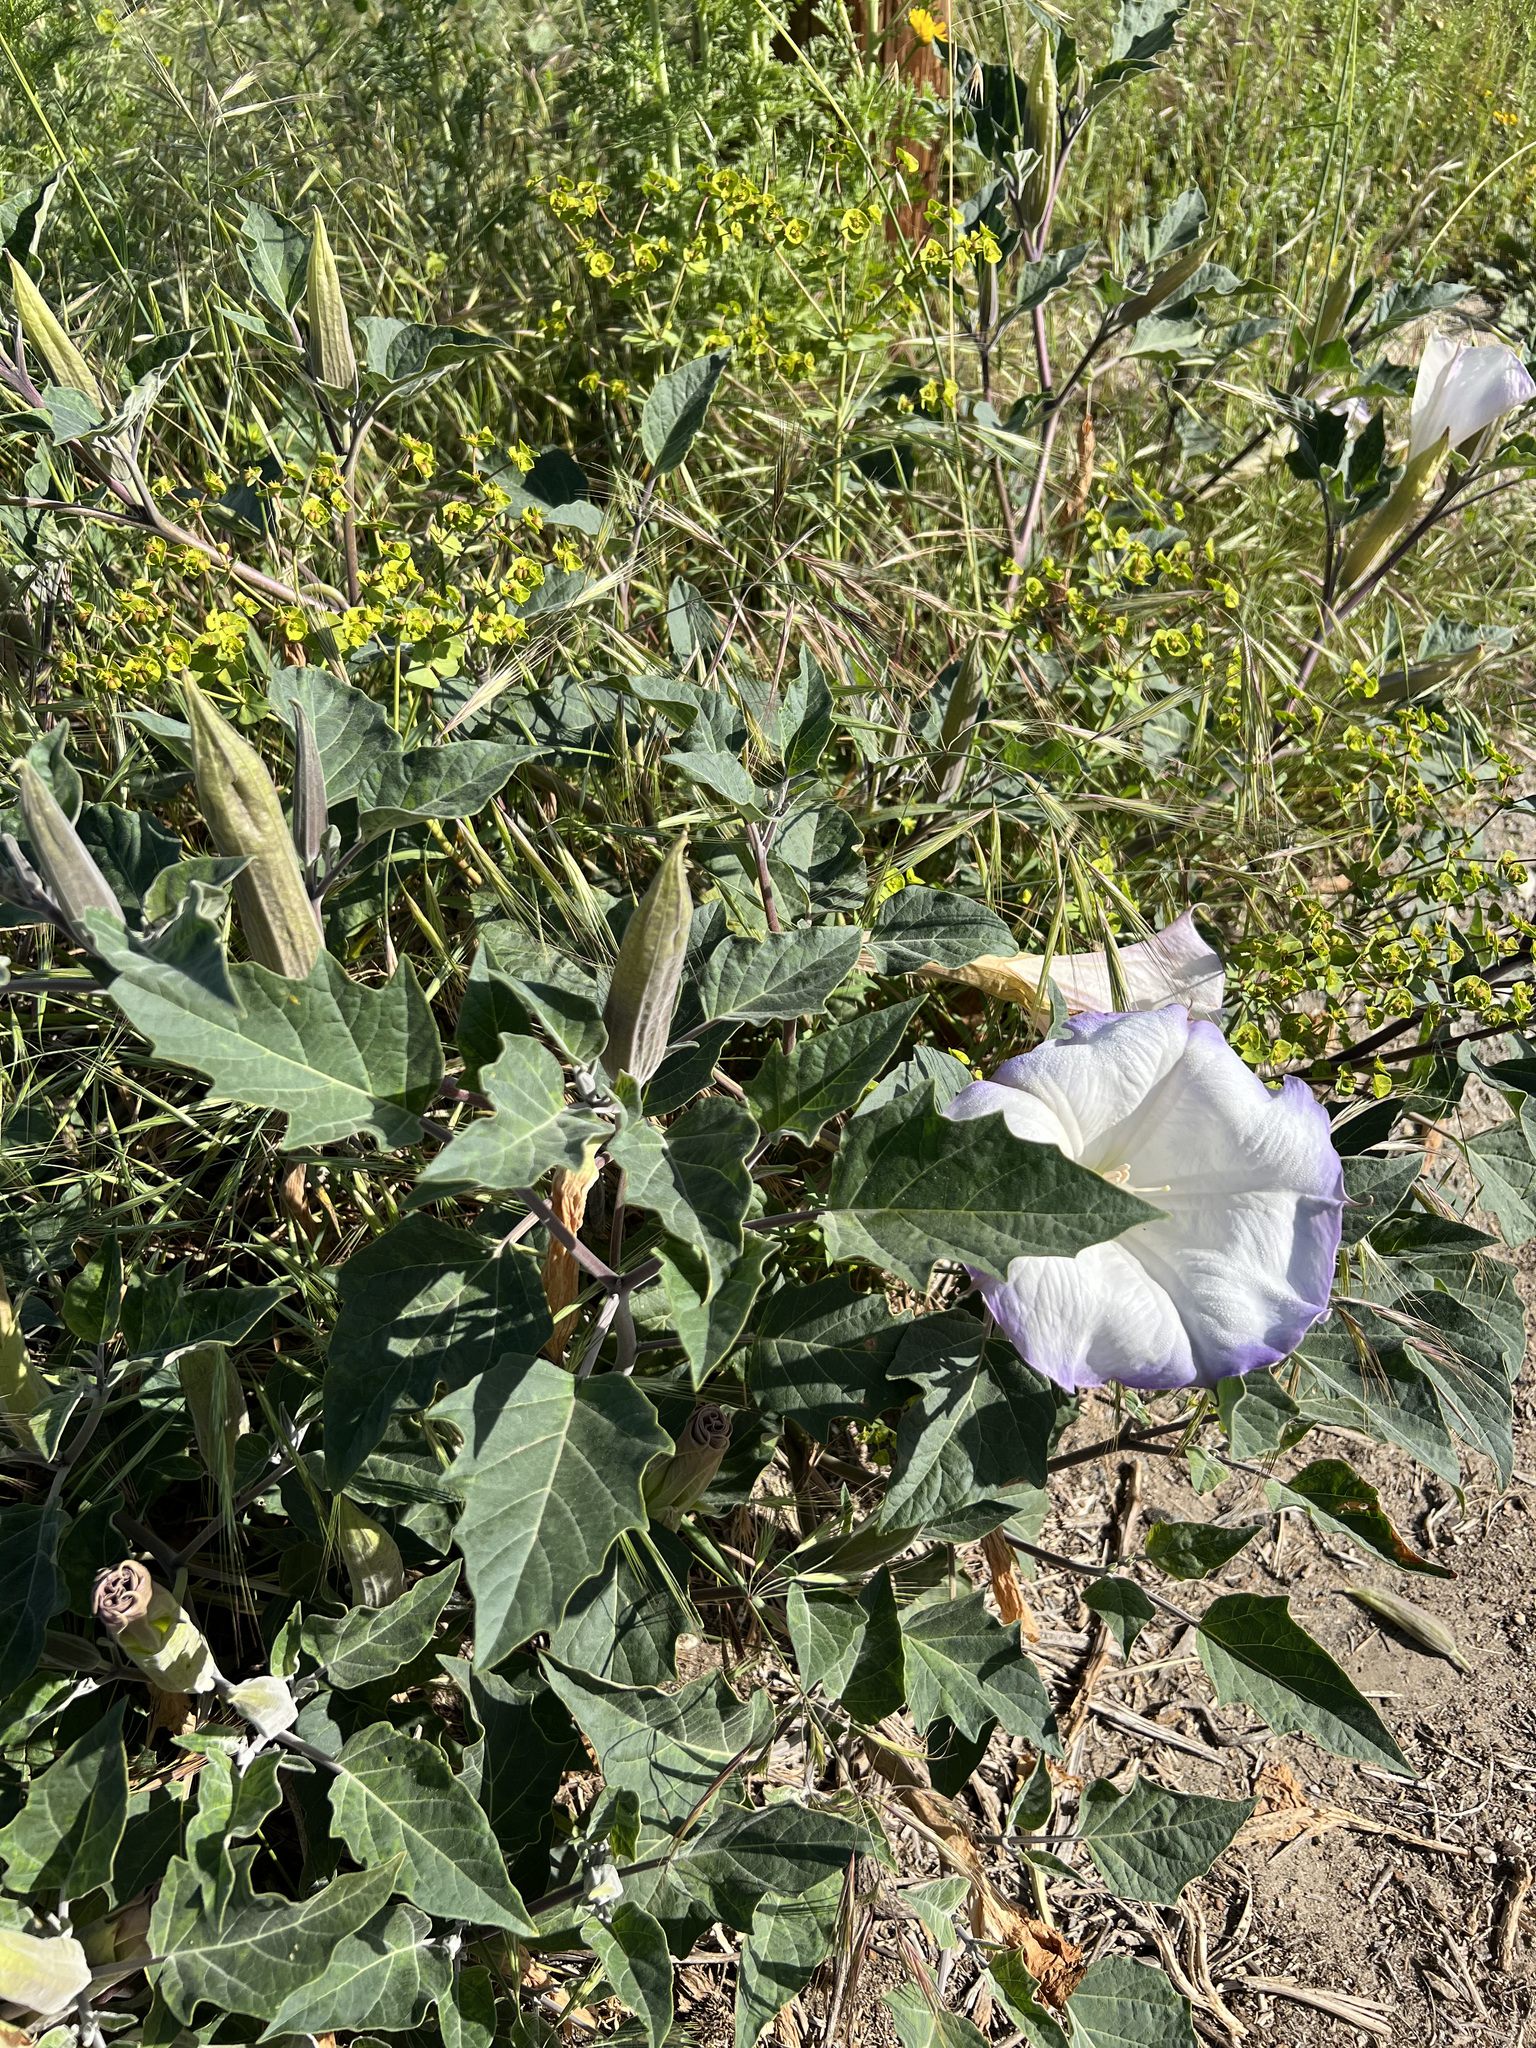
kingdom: Plantae
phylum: Tracheophyta
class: Magnoliopsida
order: Solanales
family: Solanaceae
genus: Datura
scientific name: Datura wrightii
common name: Sacred thorn-apple
